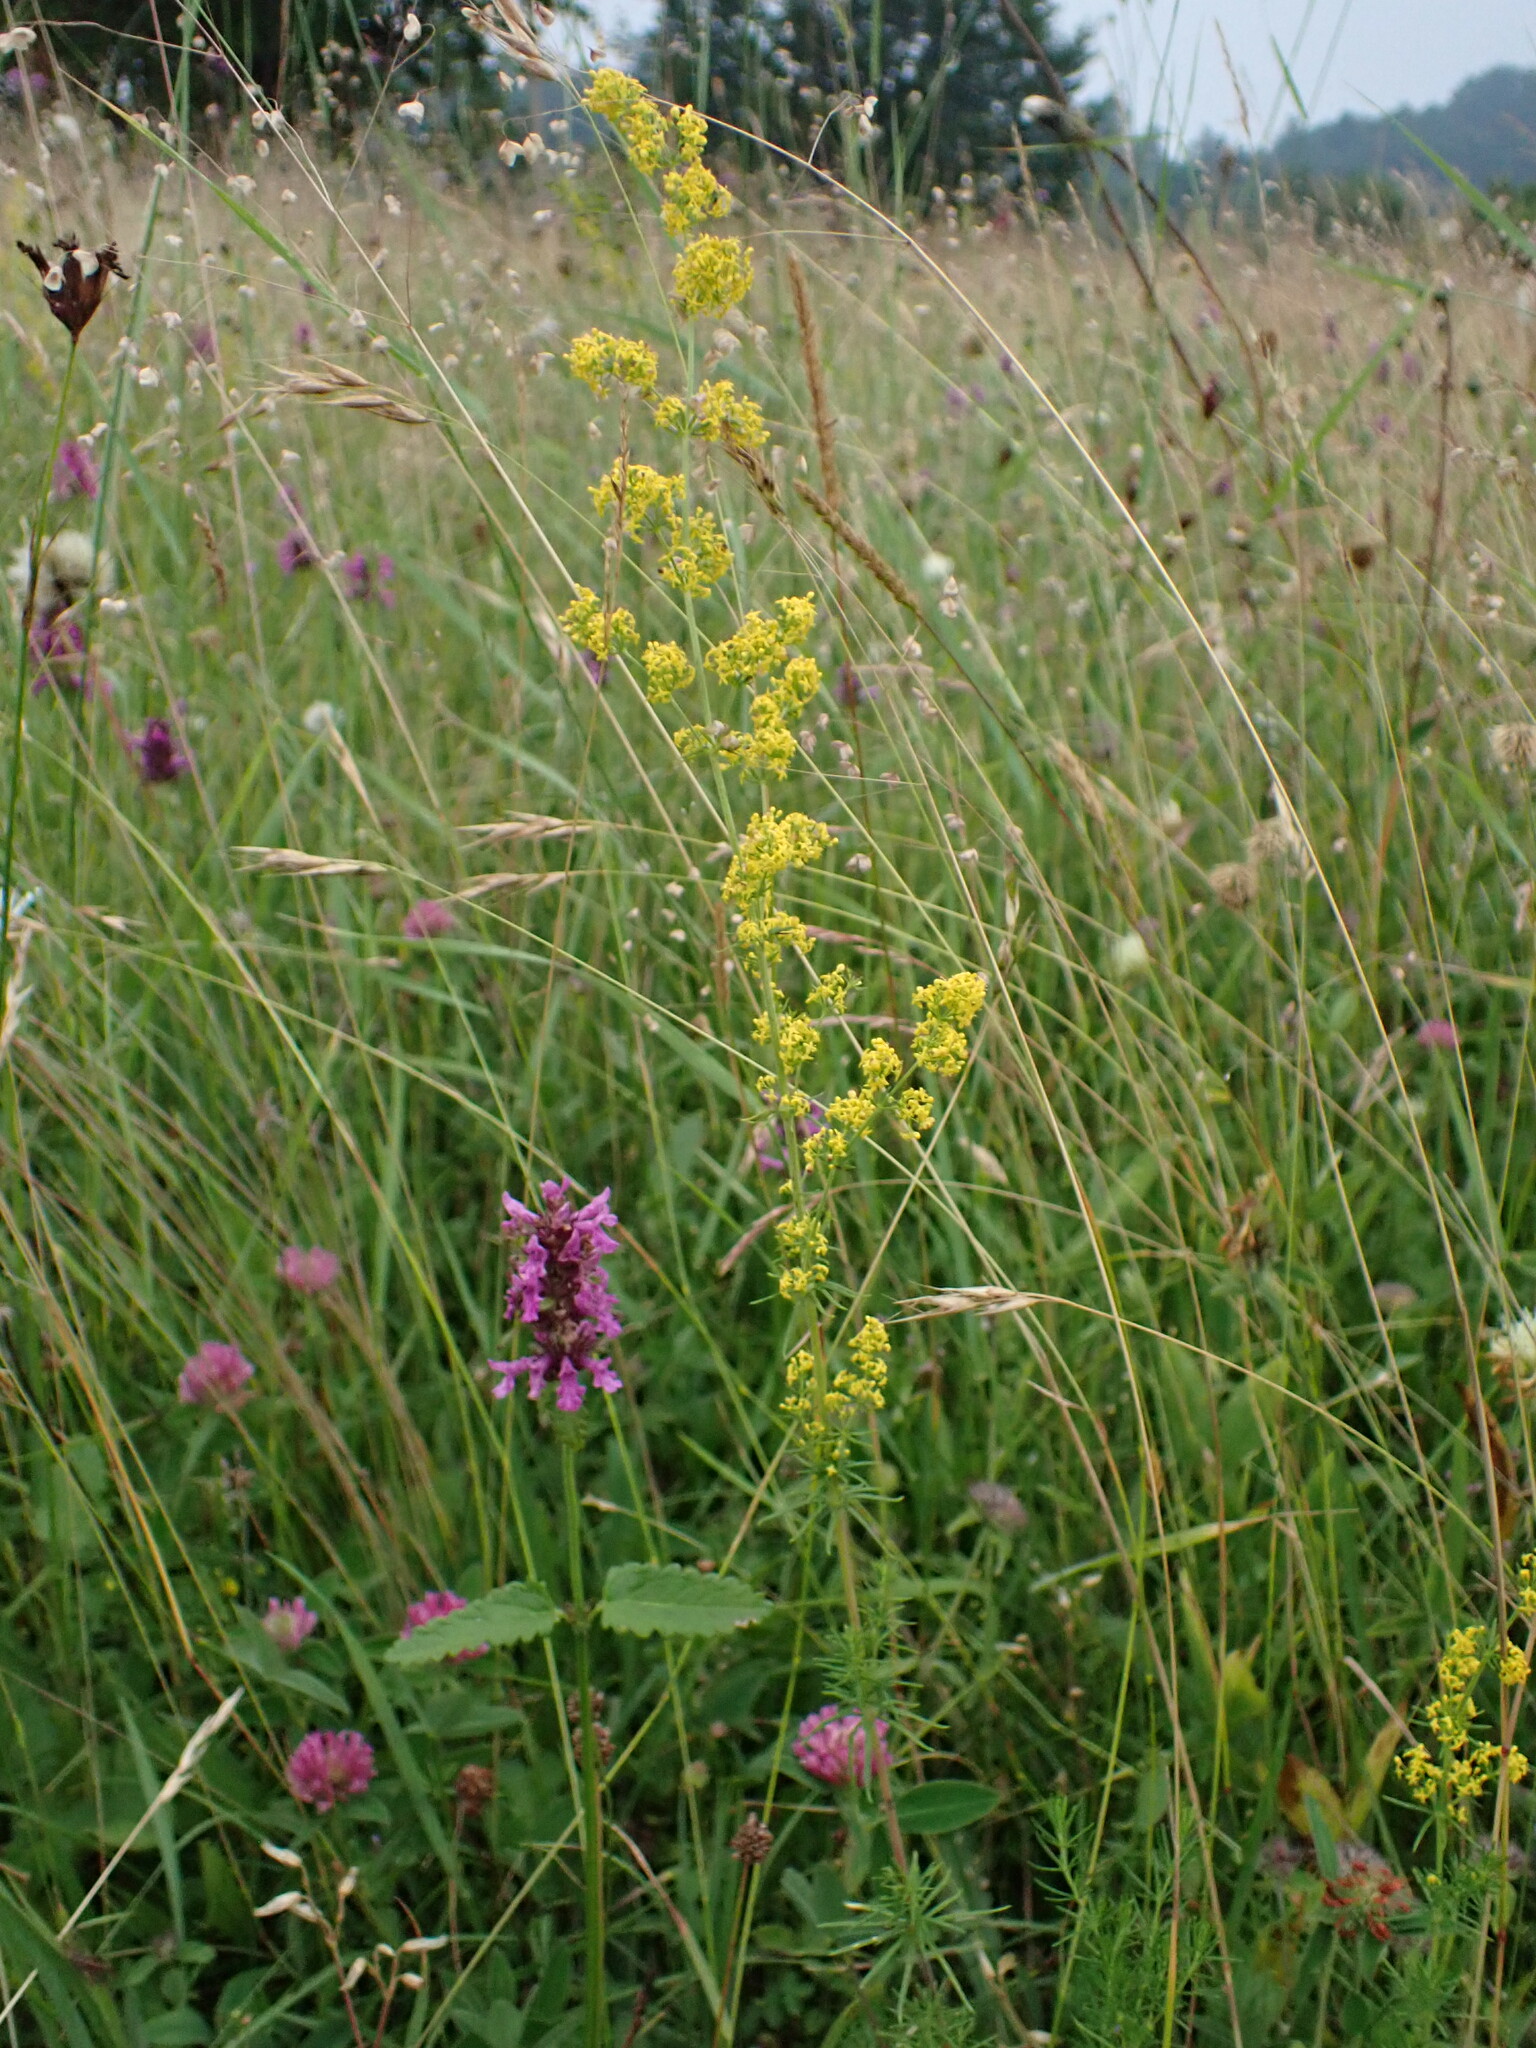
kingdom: Plantae
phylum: Tracheophyta
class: Magnoliopsida
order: Gentianales
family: Rubiaceae
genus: Galium
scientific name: Galium verum
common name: Lady's bedstraw
